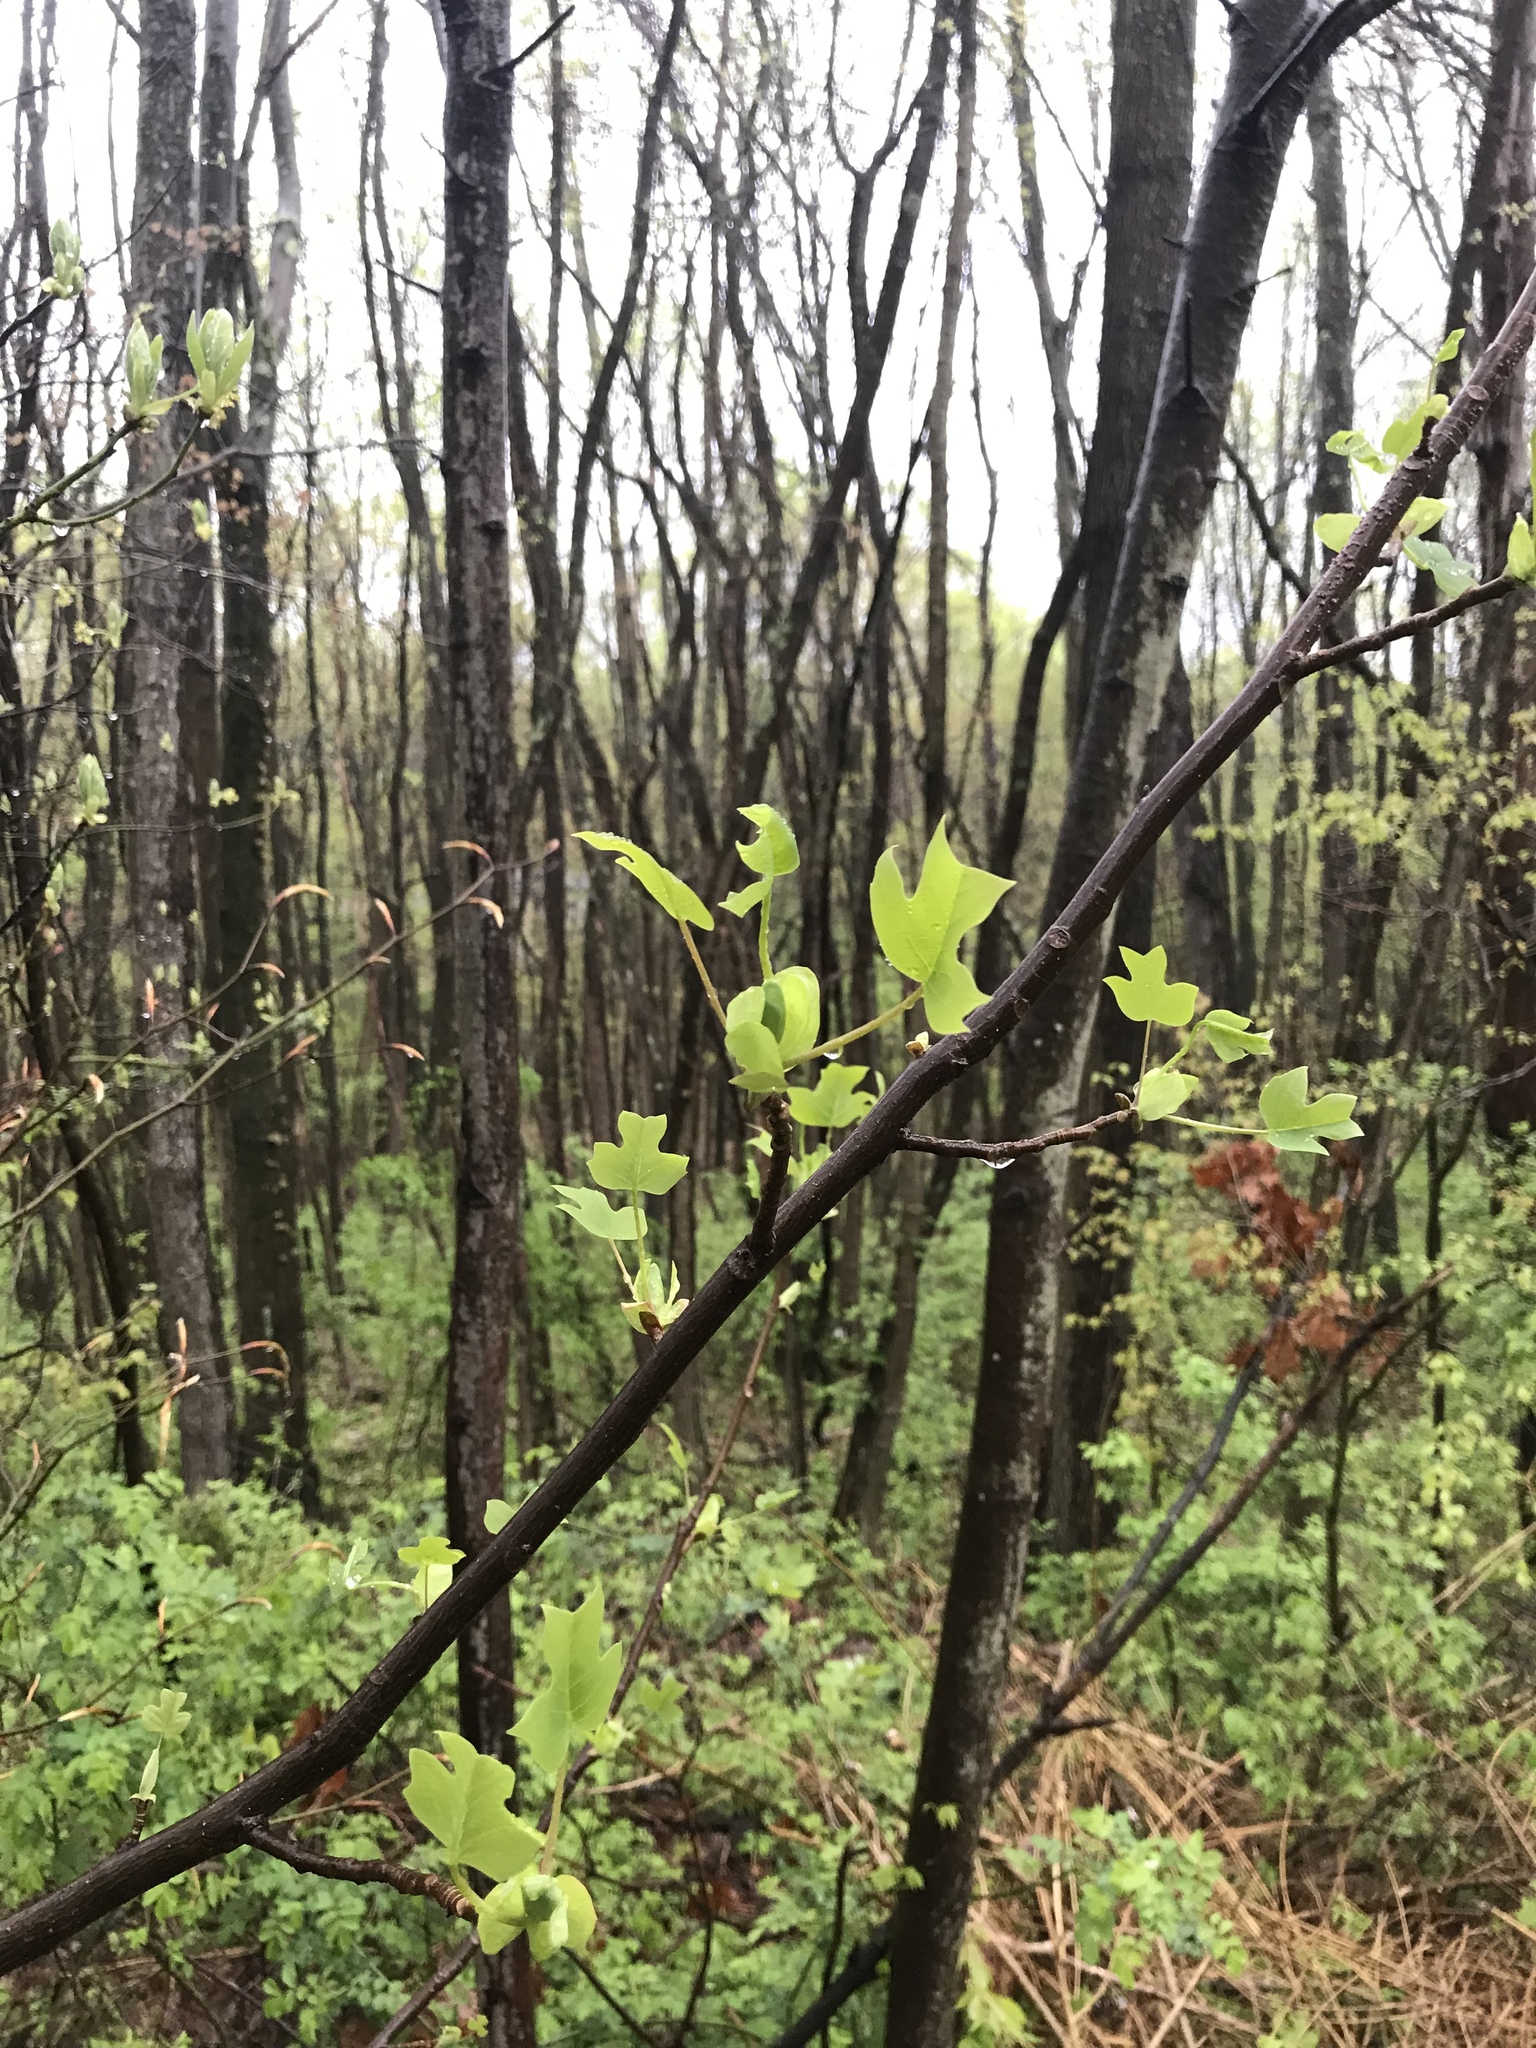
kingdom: Plantae
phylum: Tracheophyta
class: Magnoliopsida
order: Magnoliales
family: Magnoliaceae
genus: Liriodendron
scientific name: Liriodendron tulipifera
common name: Tulip tree
